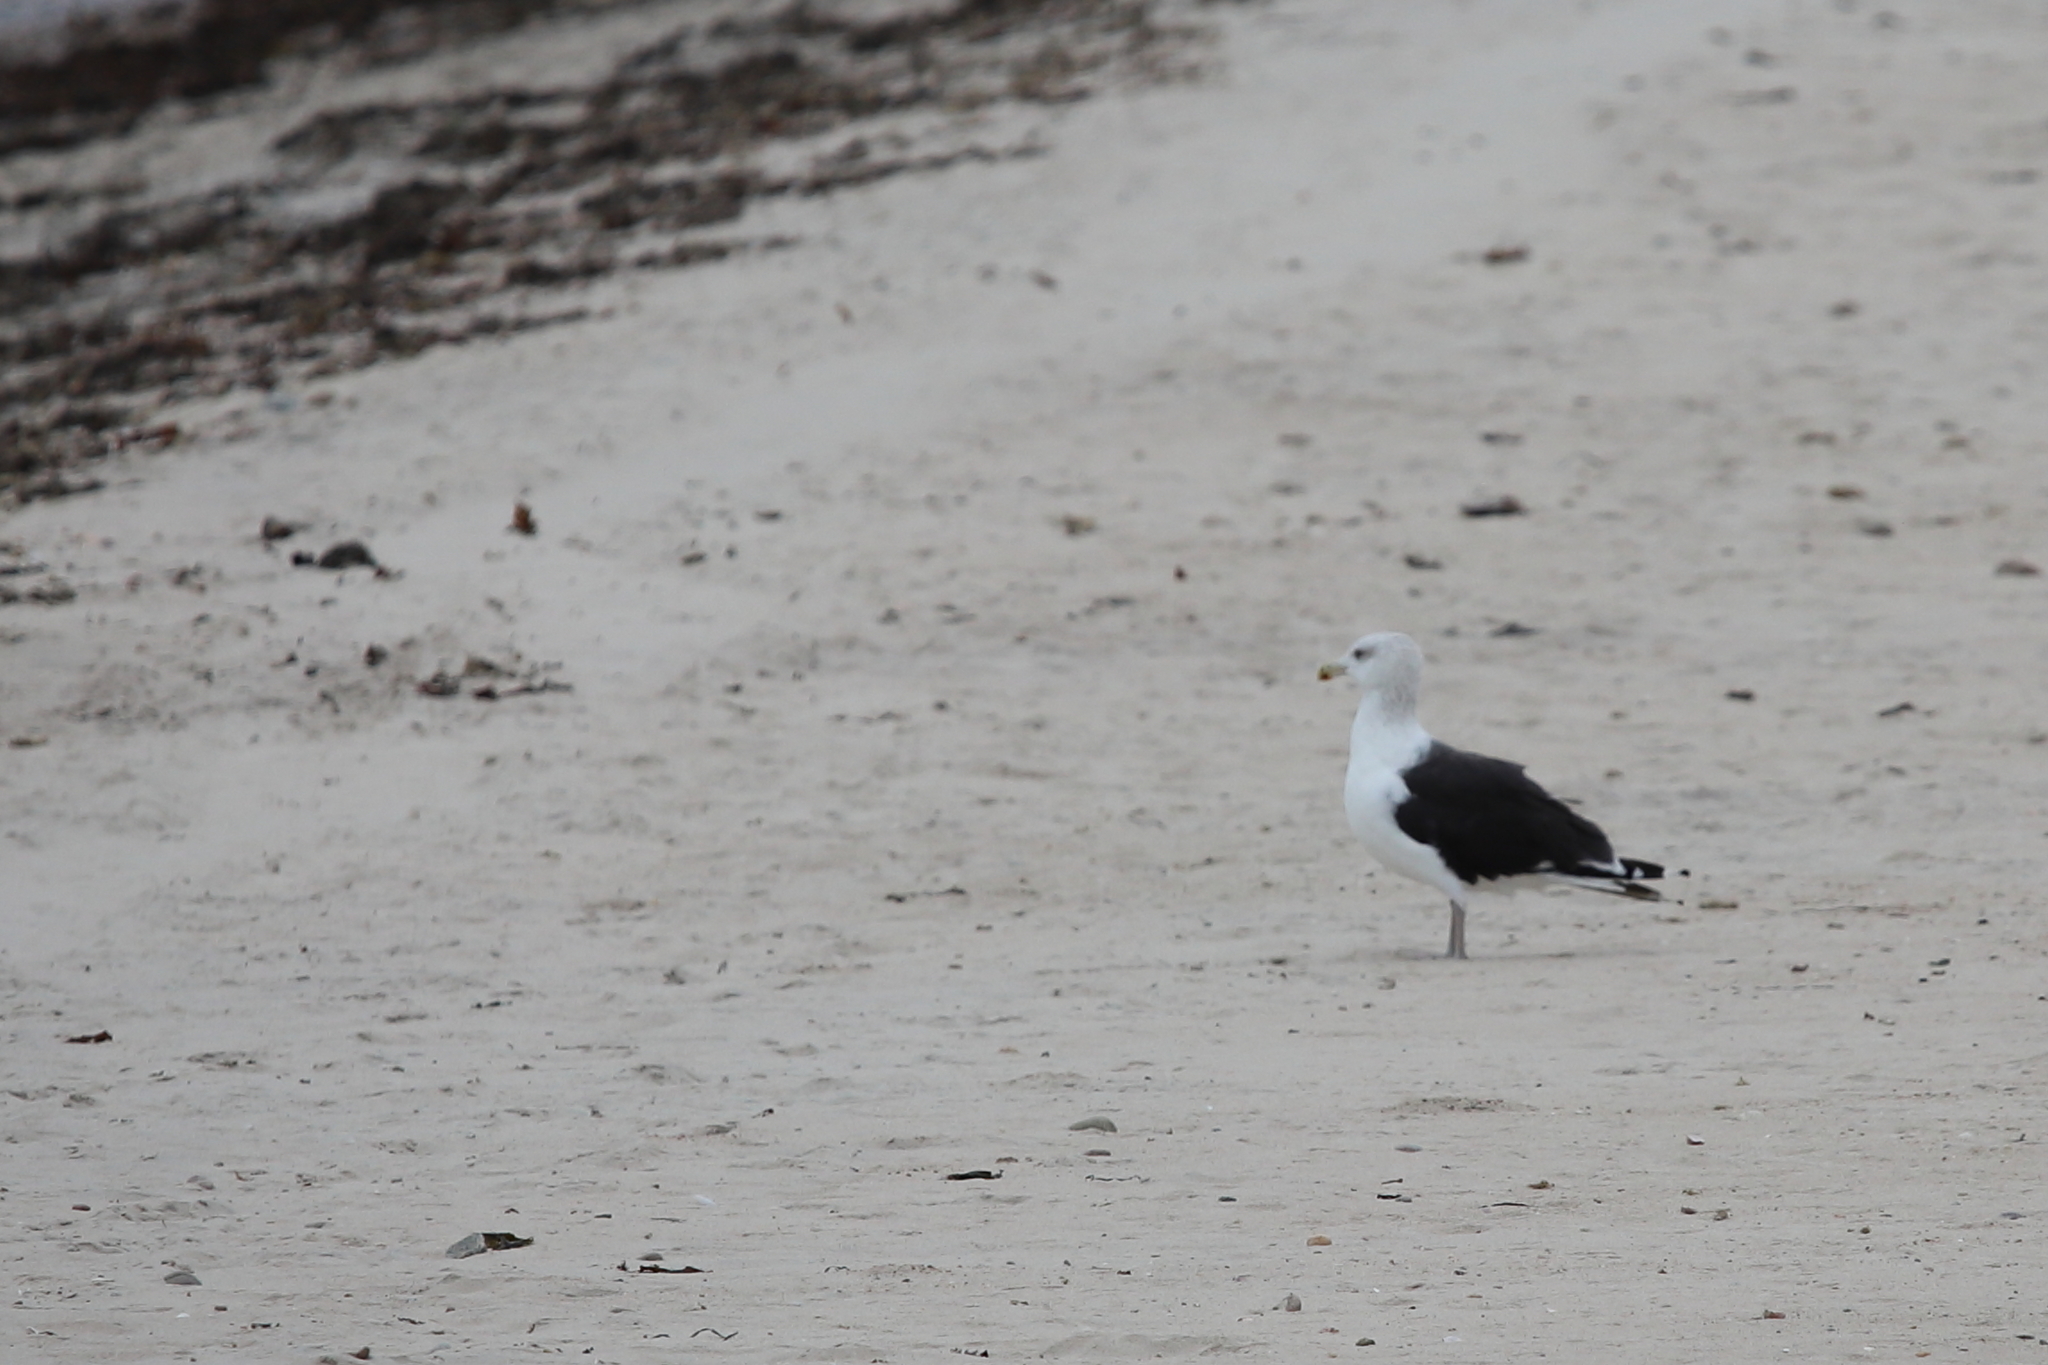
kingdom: Animalia
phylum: Chordata
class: Aves
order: Charadriiformes
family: Laridae
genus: Larus
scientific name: Larus marinus
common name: Great black-backed gull
